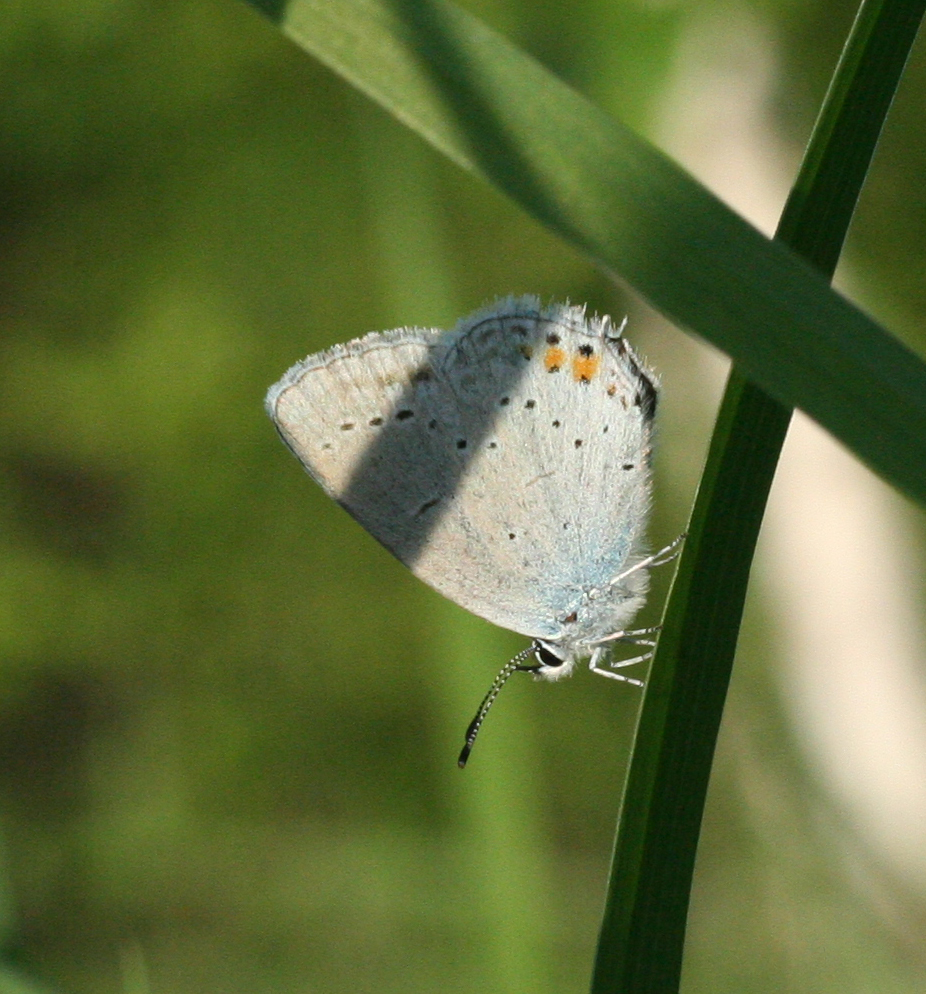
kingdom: Animalia
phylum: Arthropoda
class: Insecta
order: Lepidoptera
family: Lycaenidae
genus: Elkalyce
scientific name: Elkalyce argiades
